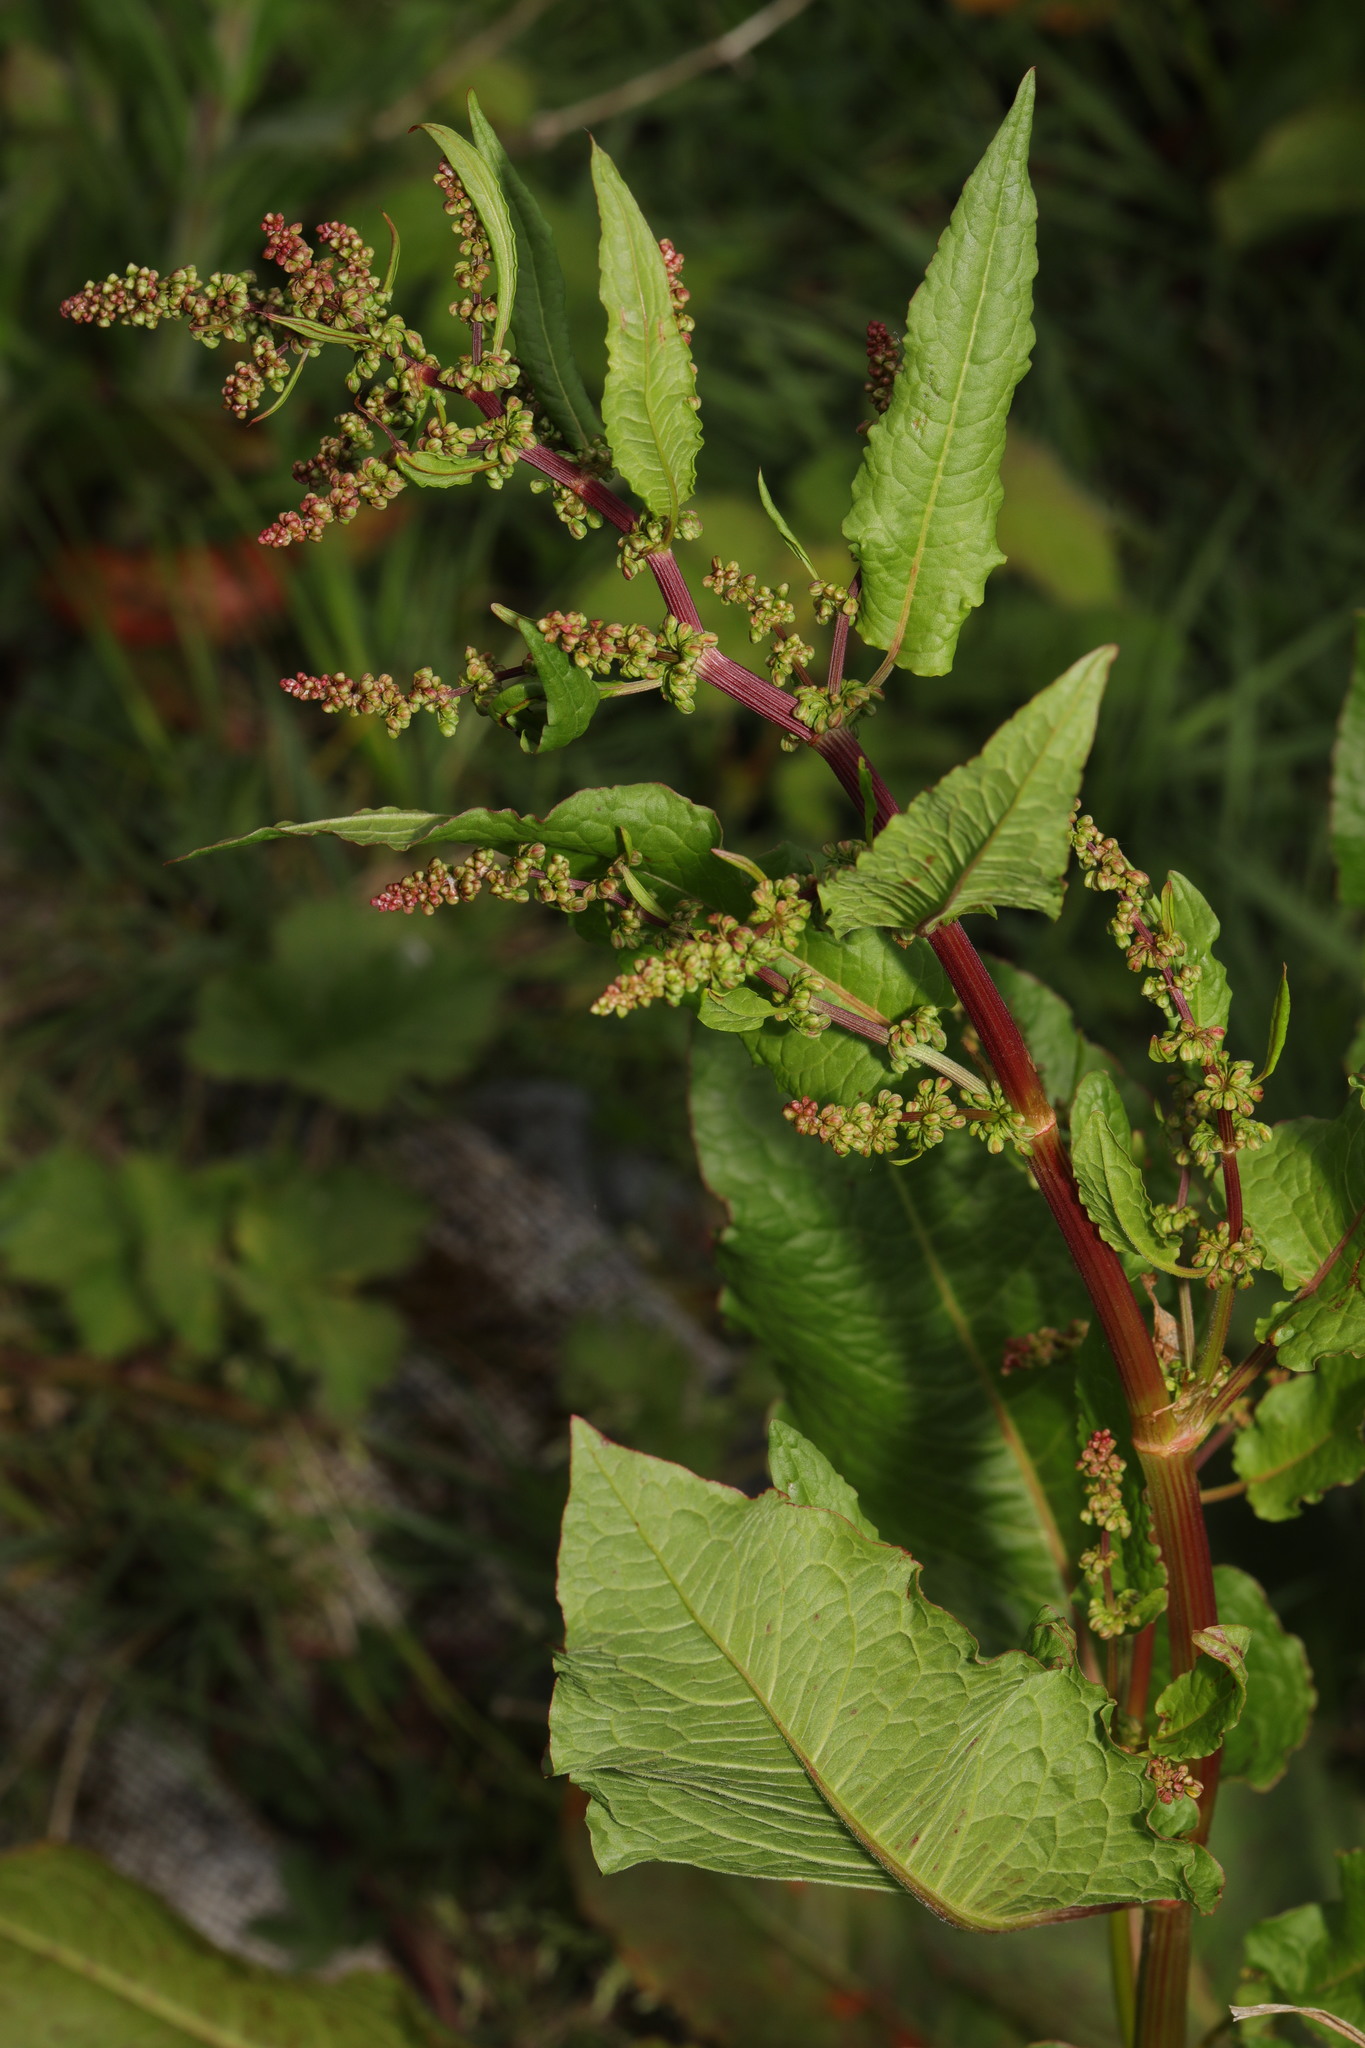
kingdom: Plantae
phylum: Tracheophyta
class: Magnoliopsida
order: Caryophyllales
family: Polygonaceae
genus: Rumex
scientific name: Rumex obtusifolius
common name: Bitter dock
